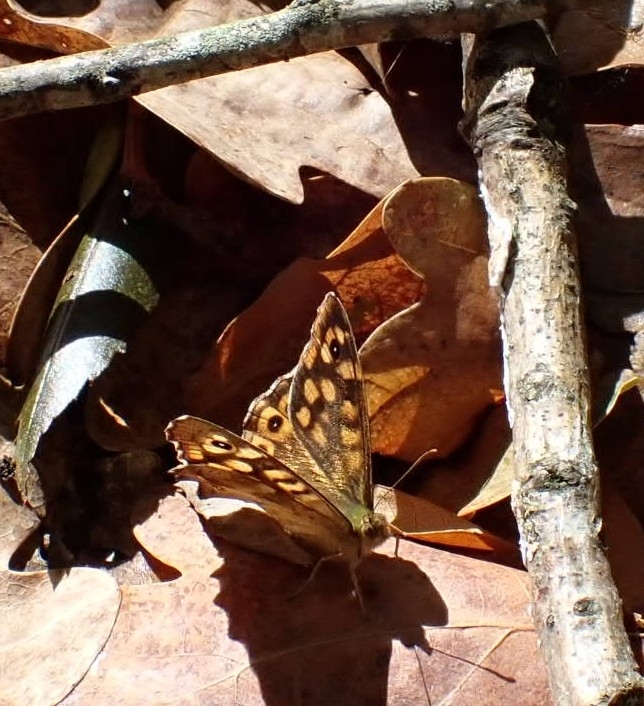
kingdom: Animalia
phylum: Arthropoda
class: Insecta
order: Lepidoptera
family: Nymphalidae
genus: Pararge
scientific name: Pararge aegeria
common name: Speckled wood
